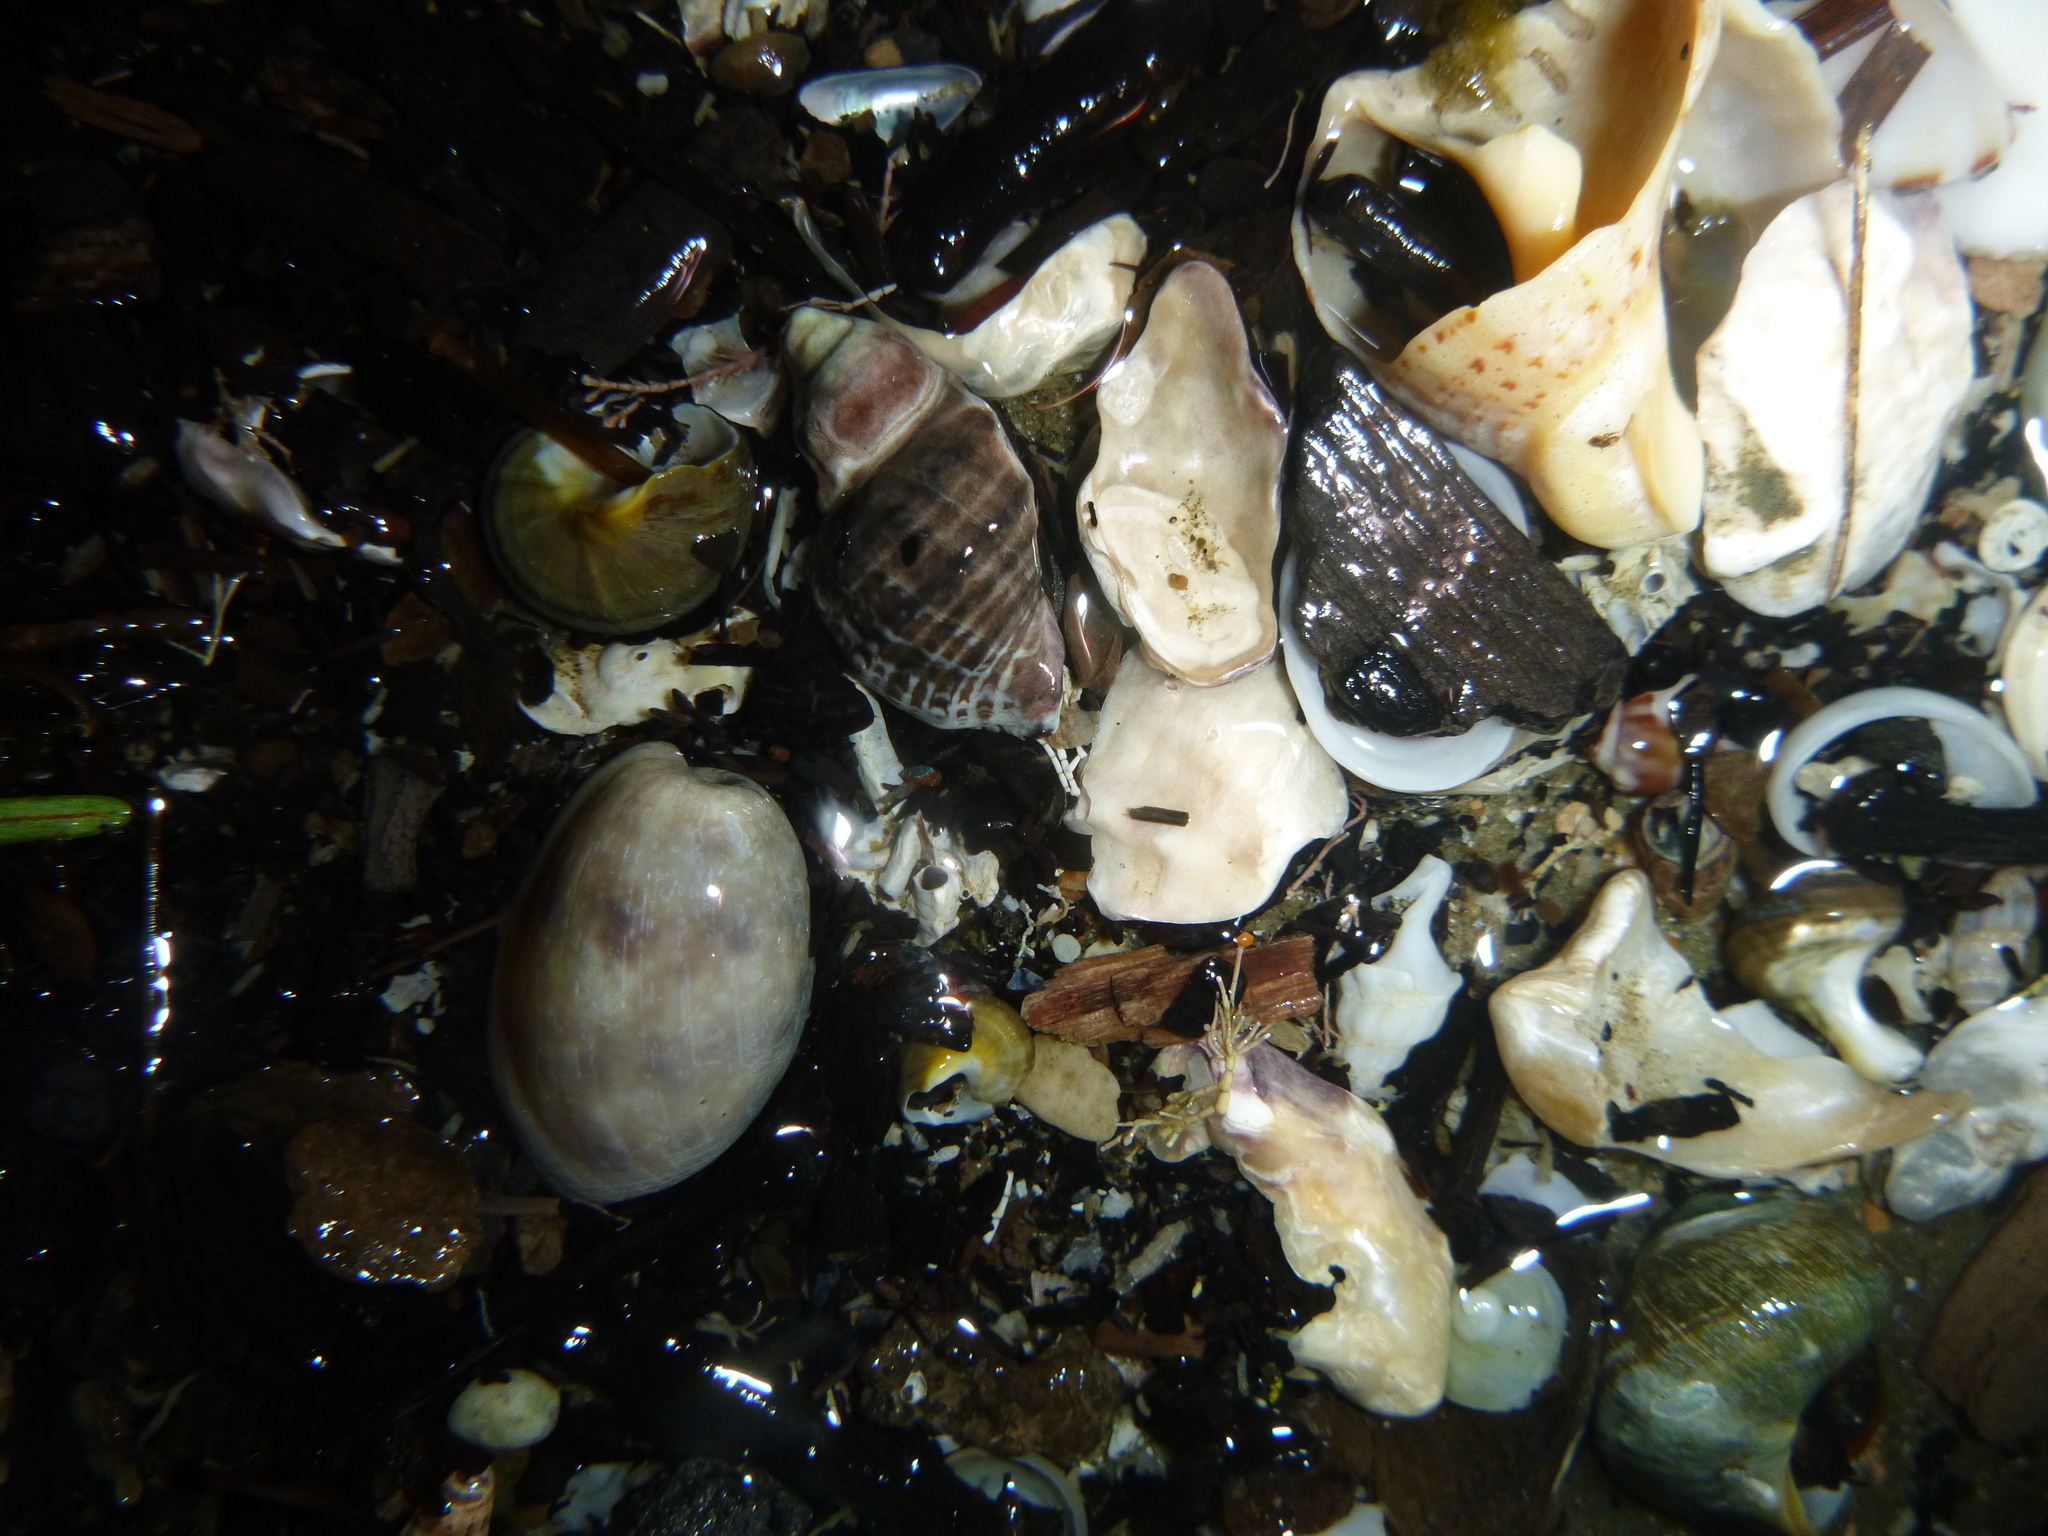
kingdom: Animalia
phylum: Mollusca
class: Gastropoda
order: Neogastropoda
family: Muricidae
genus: Haustrum
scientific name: Haustrum albomarginatum
